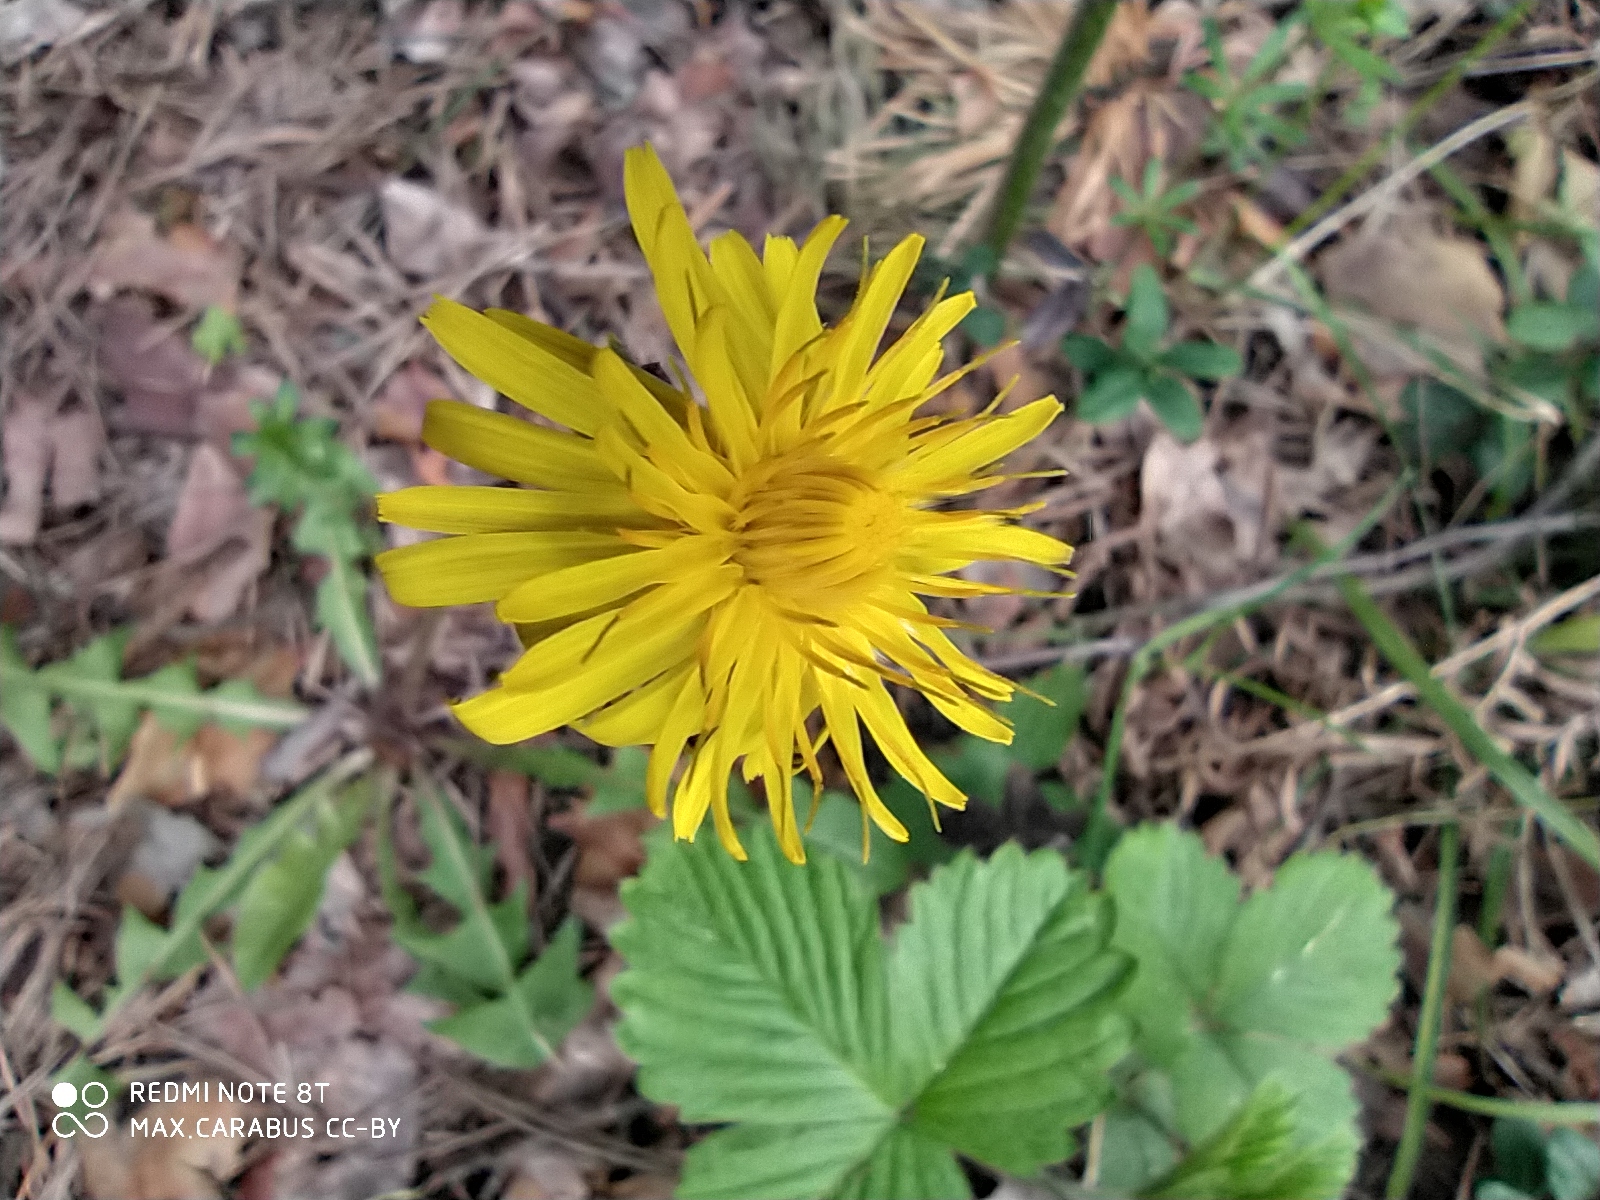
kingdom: Plantae
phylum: Tracheophyta
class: Magnoliopsida
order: Asterales
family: Asteraceae
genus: Taraxacum
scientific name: Taraxacum officinale
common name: Common dandelion
